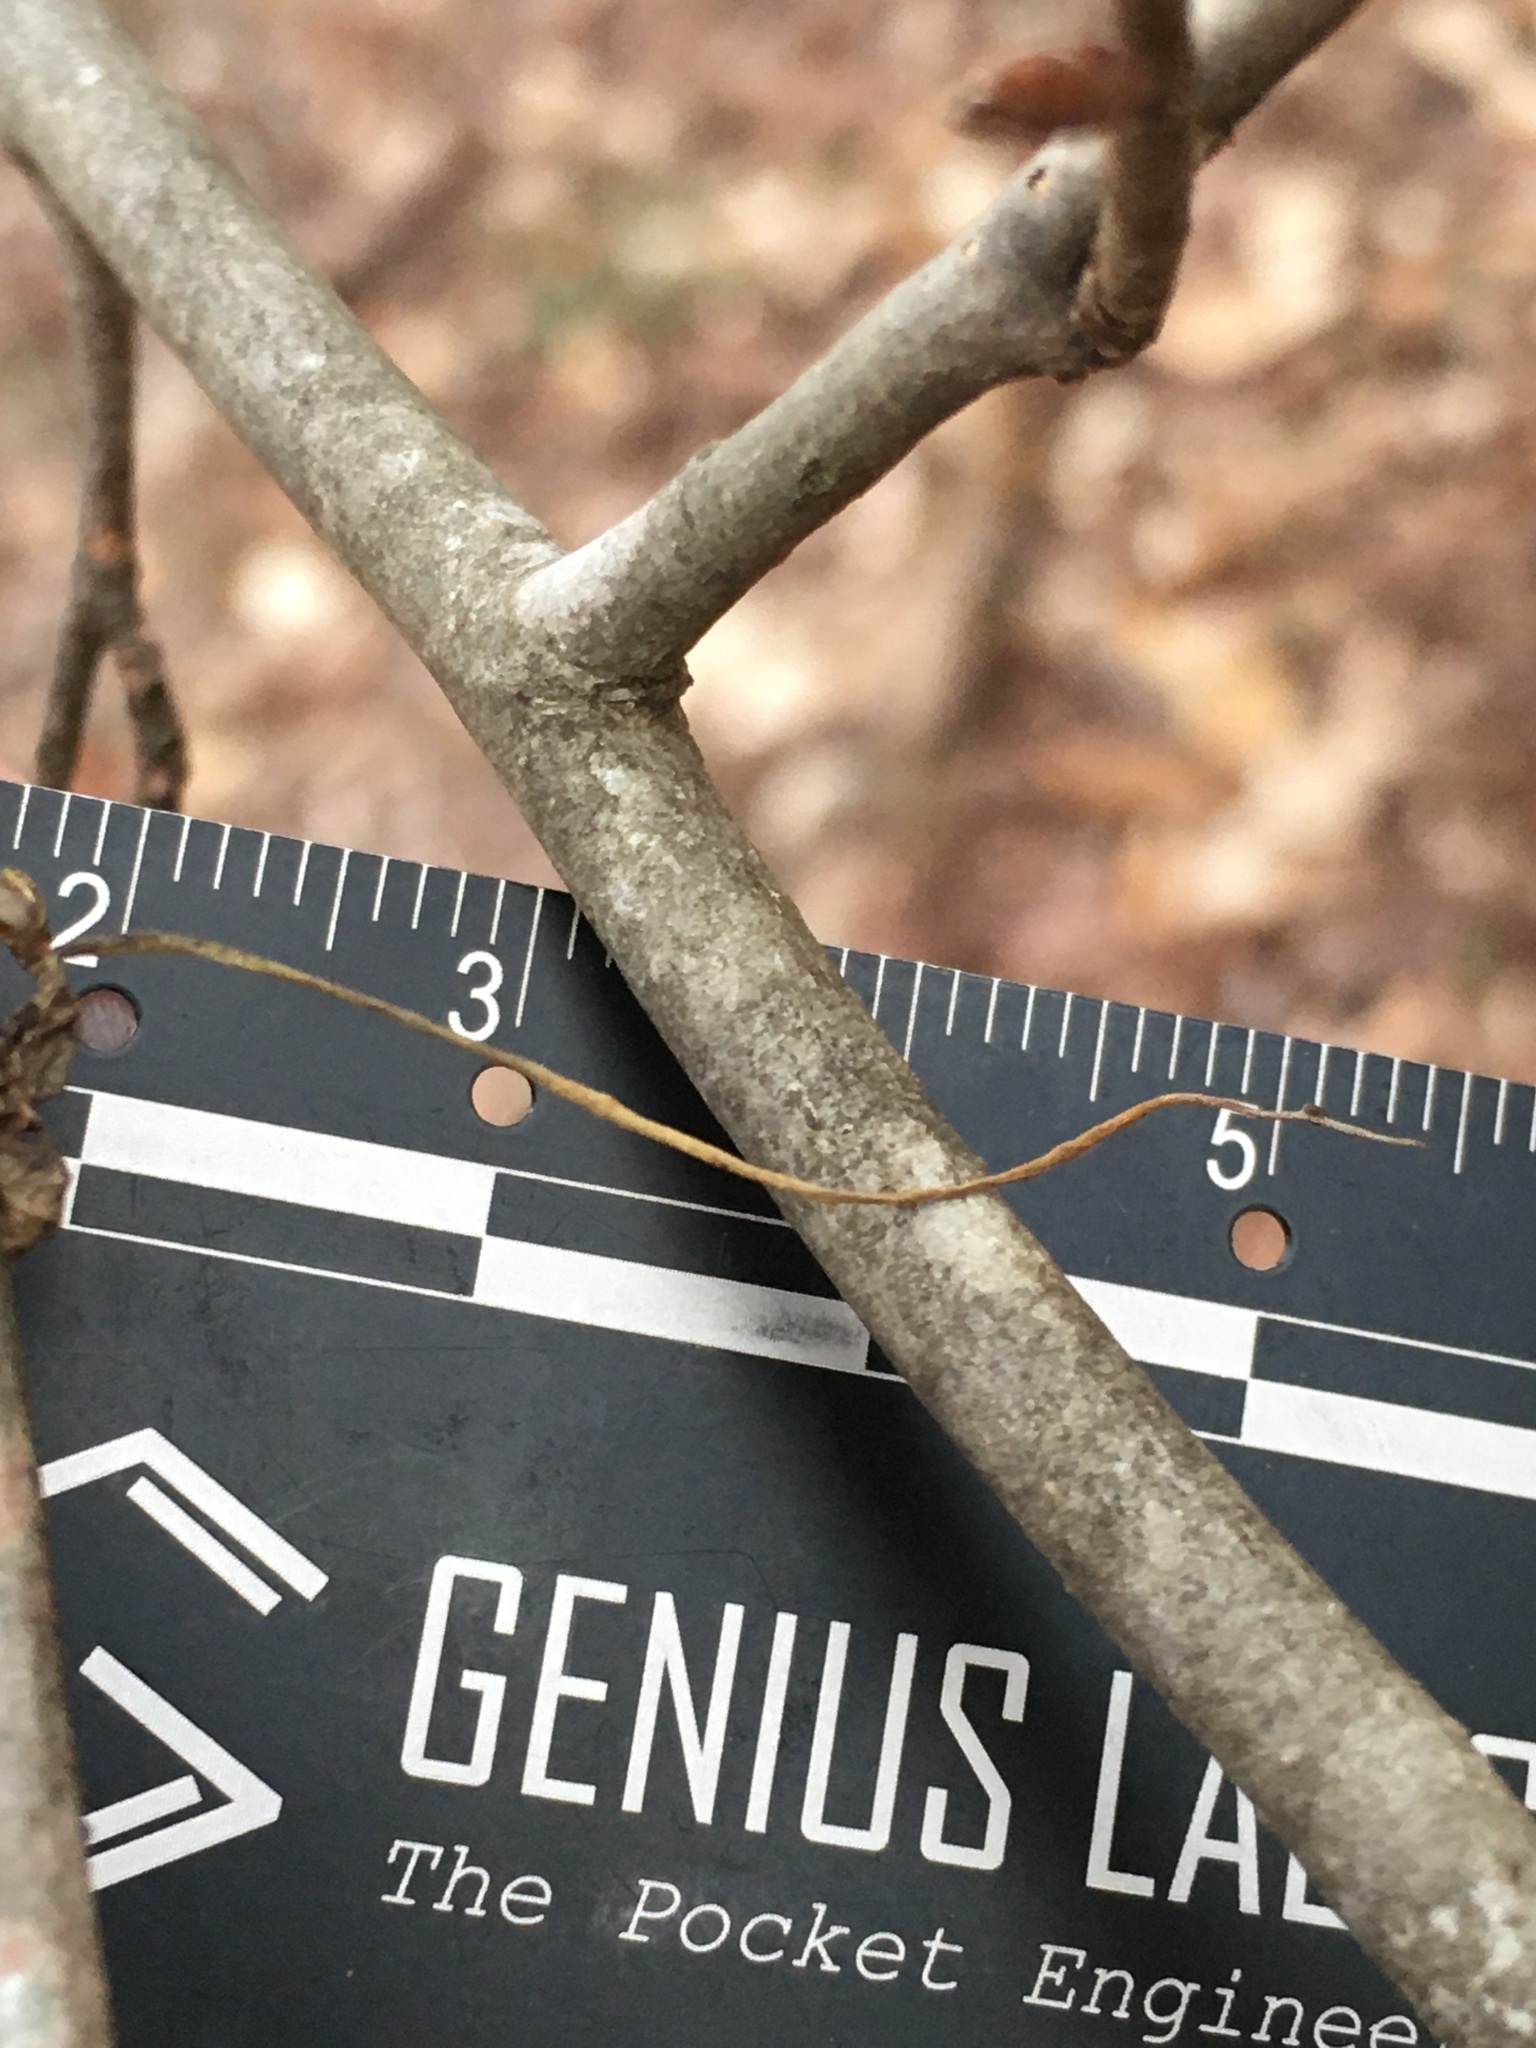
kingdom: Fungi
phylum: Ascomycota
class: Sordariomycetes
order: Hypocreales
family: Ophiocordycipitaceae
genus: Ophiocordyceps
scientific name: Ophiocordyceps kimflemingiae
